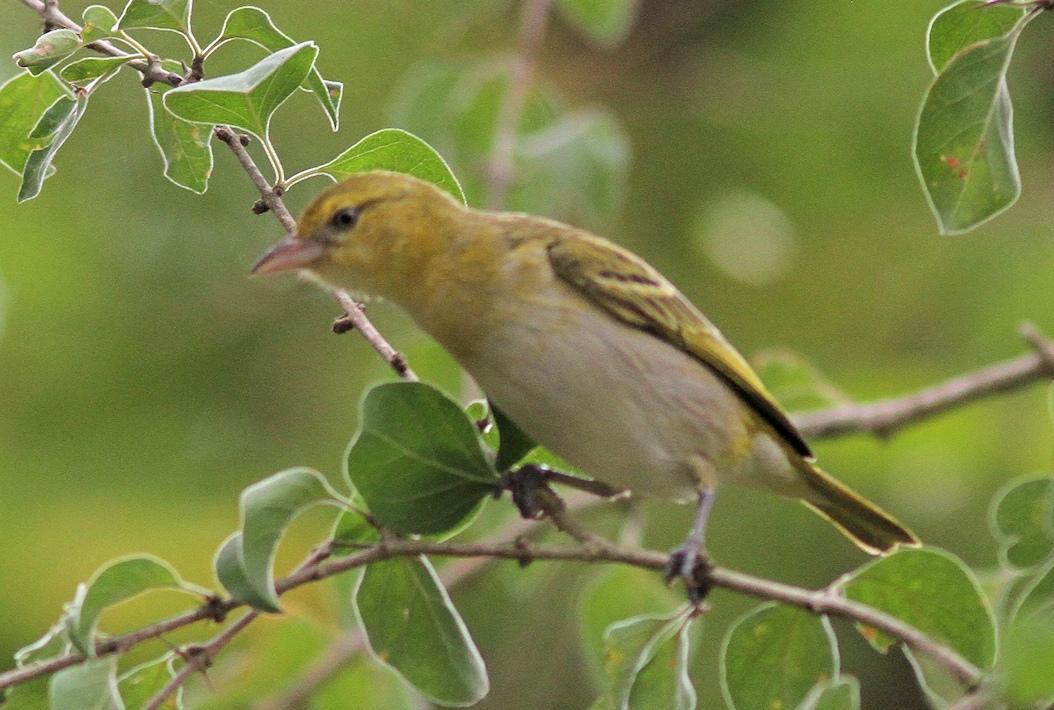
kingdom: Animalia
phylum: Chordata
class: Aves
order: Passeriformes
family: Ploceidae
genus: Anaplectes
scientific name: Anaplectes rubriceps
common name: Red-headed weaver
